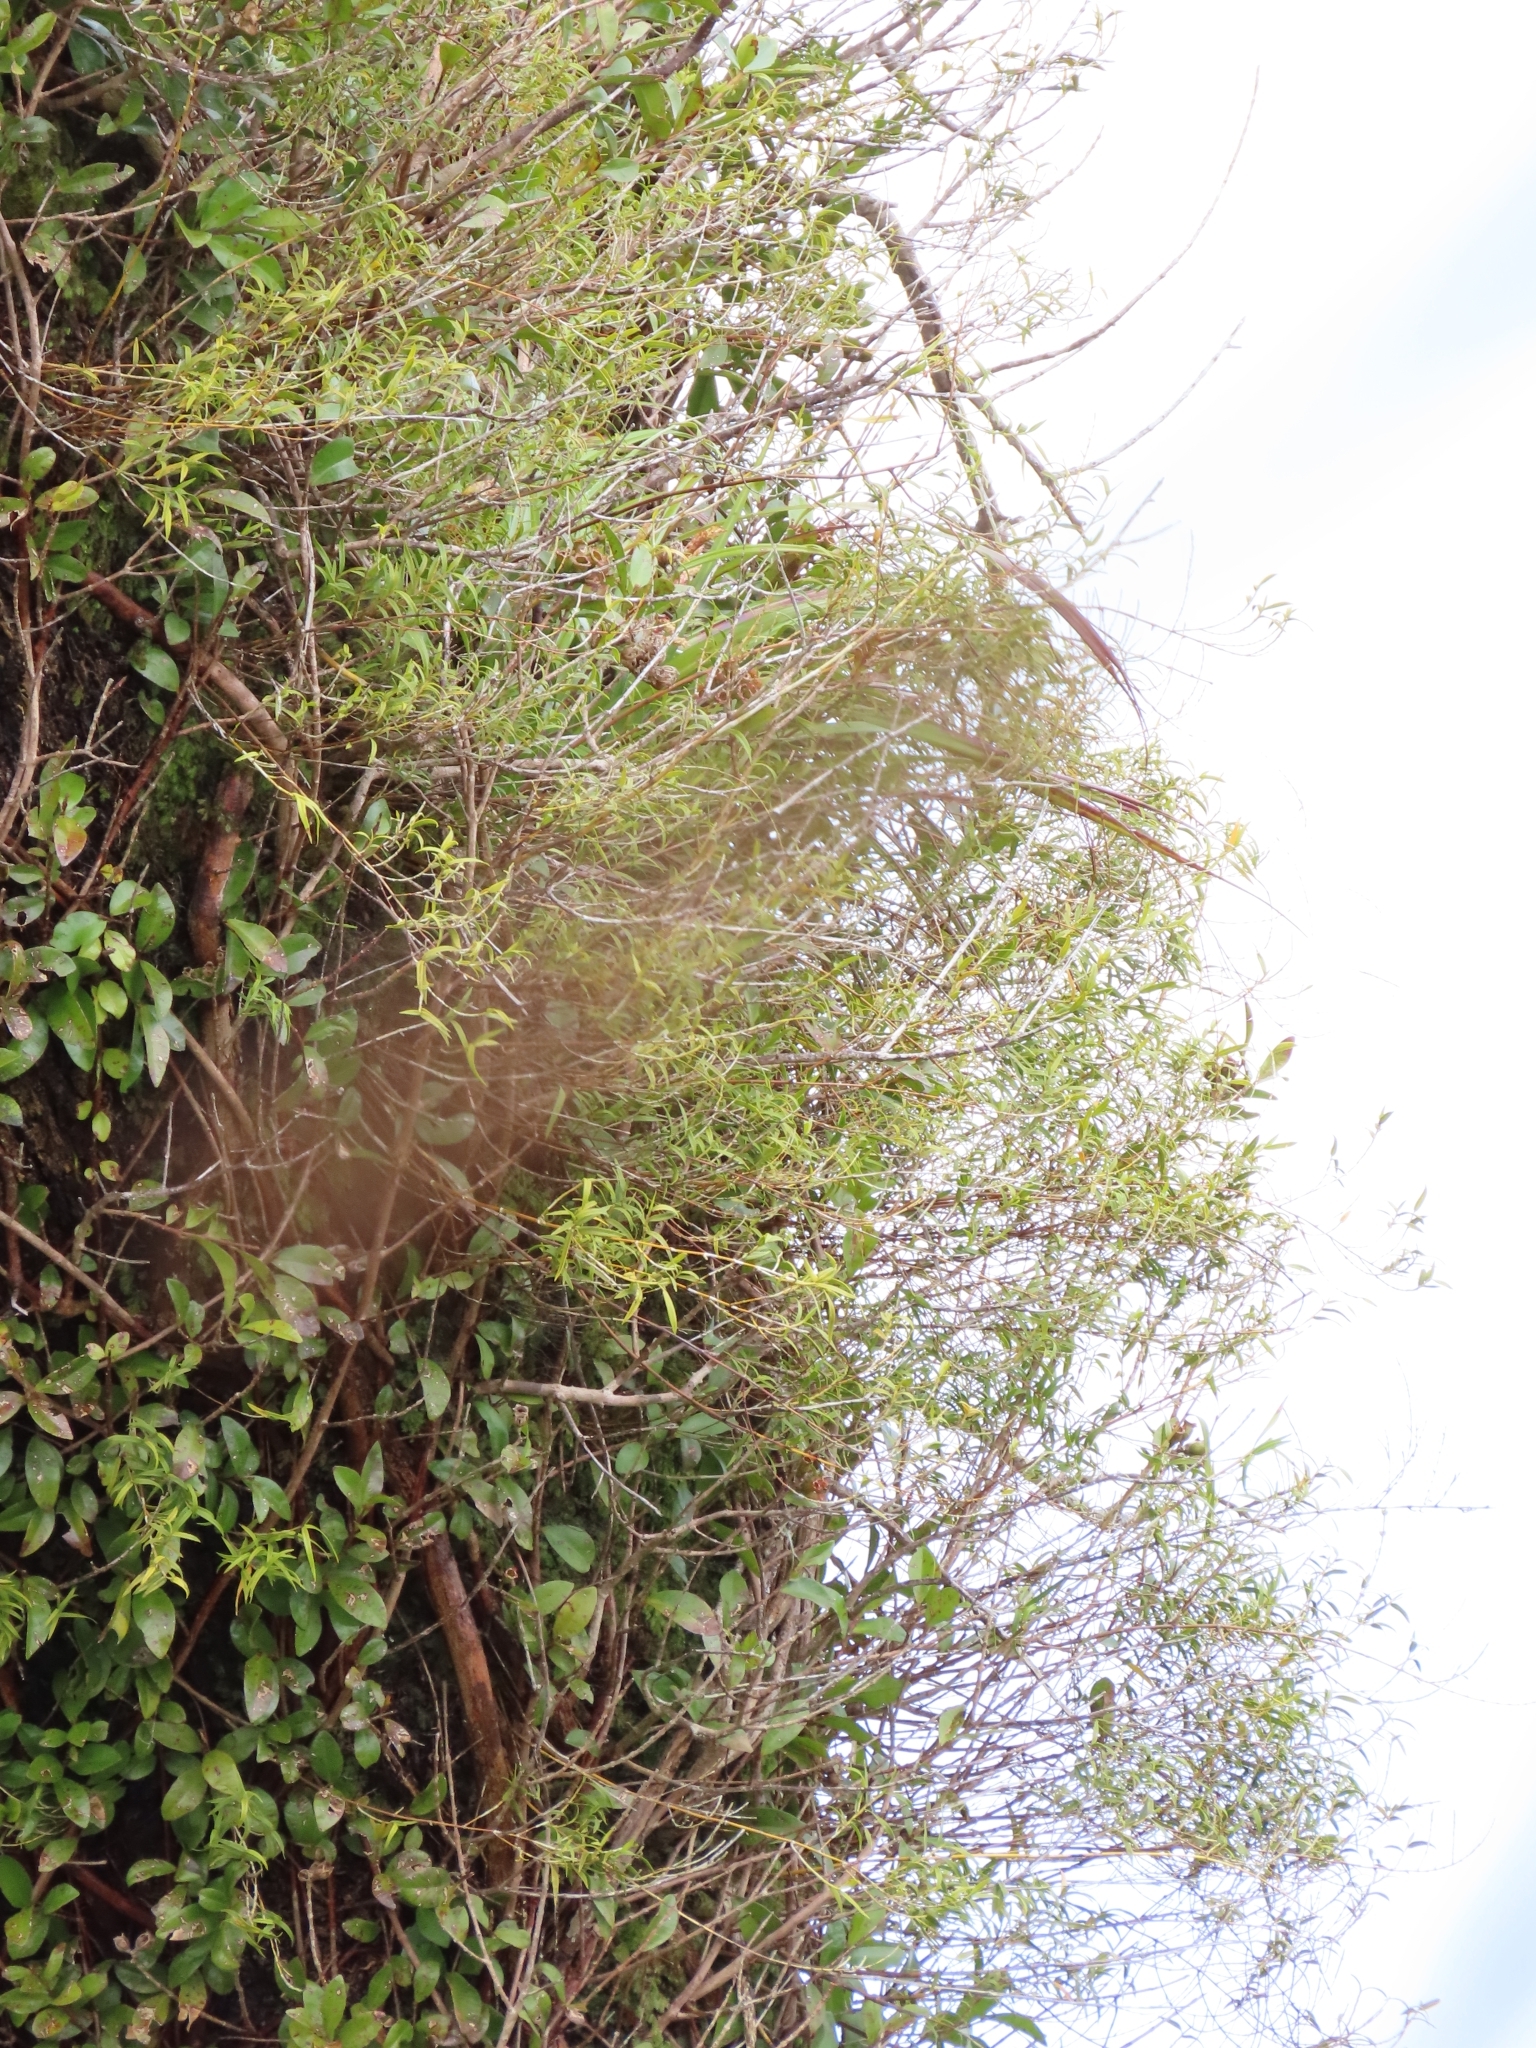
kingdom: Plantae
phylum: Tracheophyta
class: Liliopsida
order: Asparagales
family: Orchidaceae
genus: Dendrobium
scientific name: Dendrobium cunninghamii
